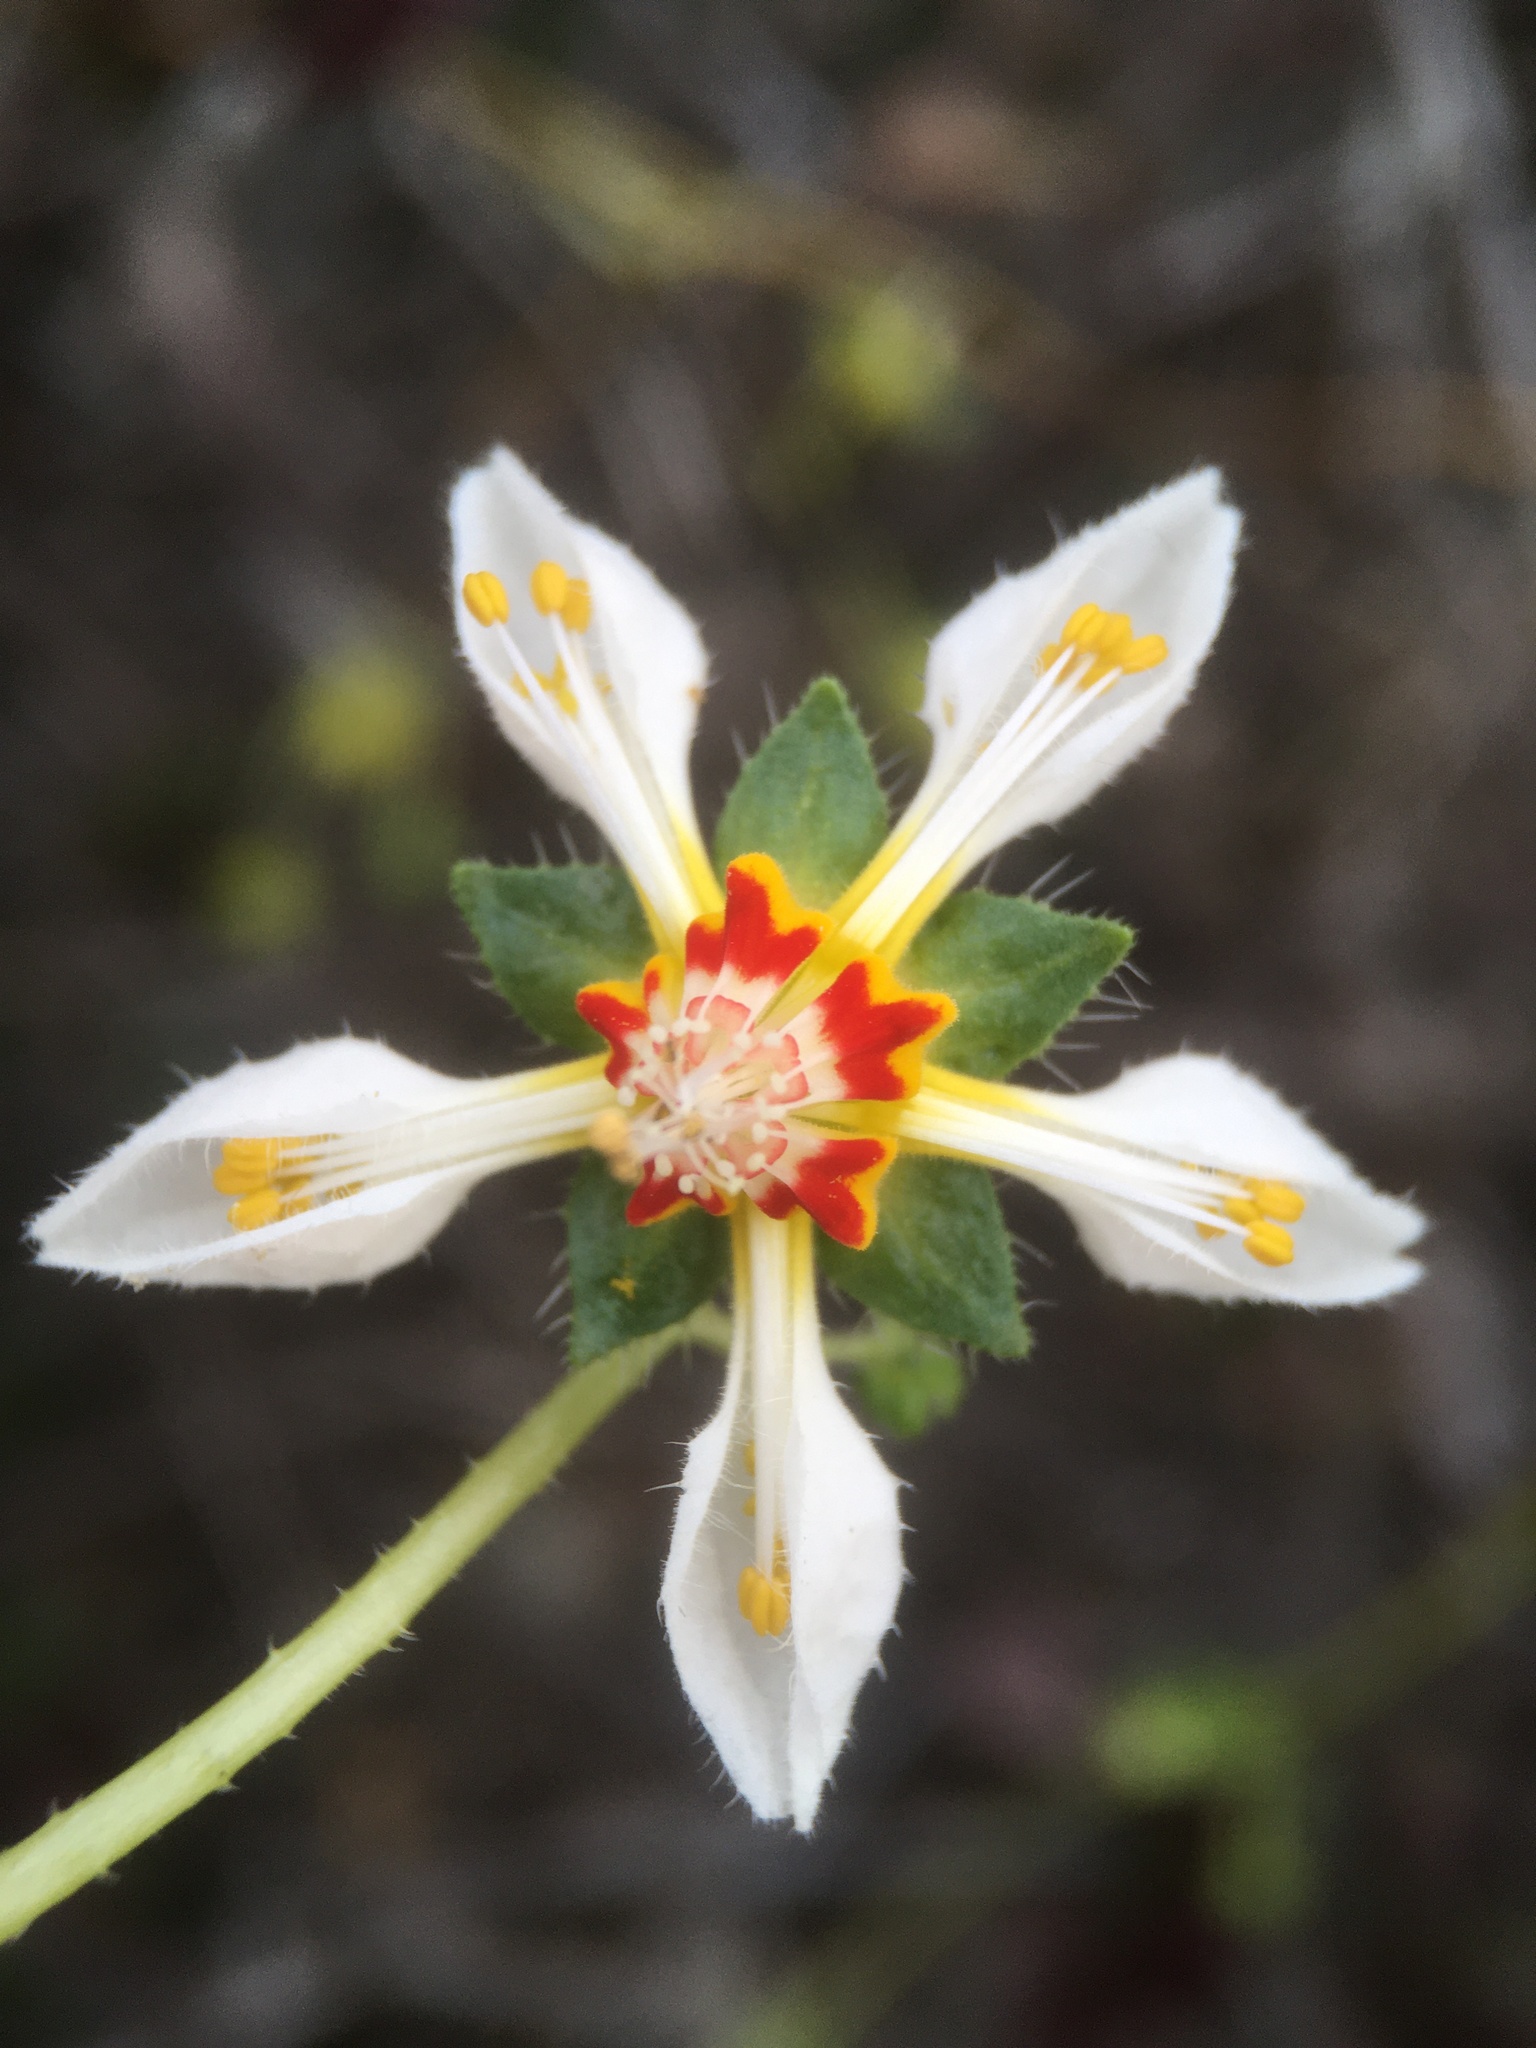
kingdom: Plantae
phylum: Tracheophyta
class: Magnoliopsida
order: Cornales
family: Loasaceae
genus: Loasa
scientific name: Loasa elongata
